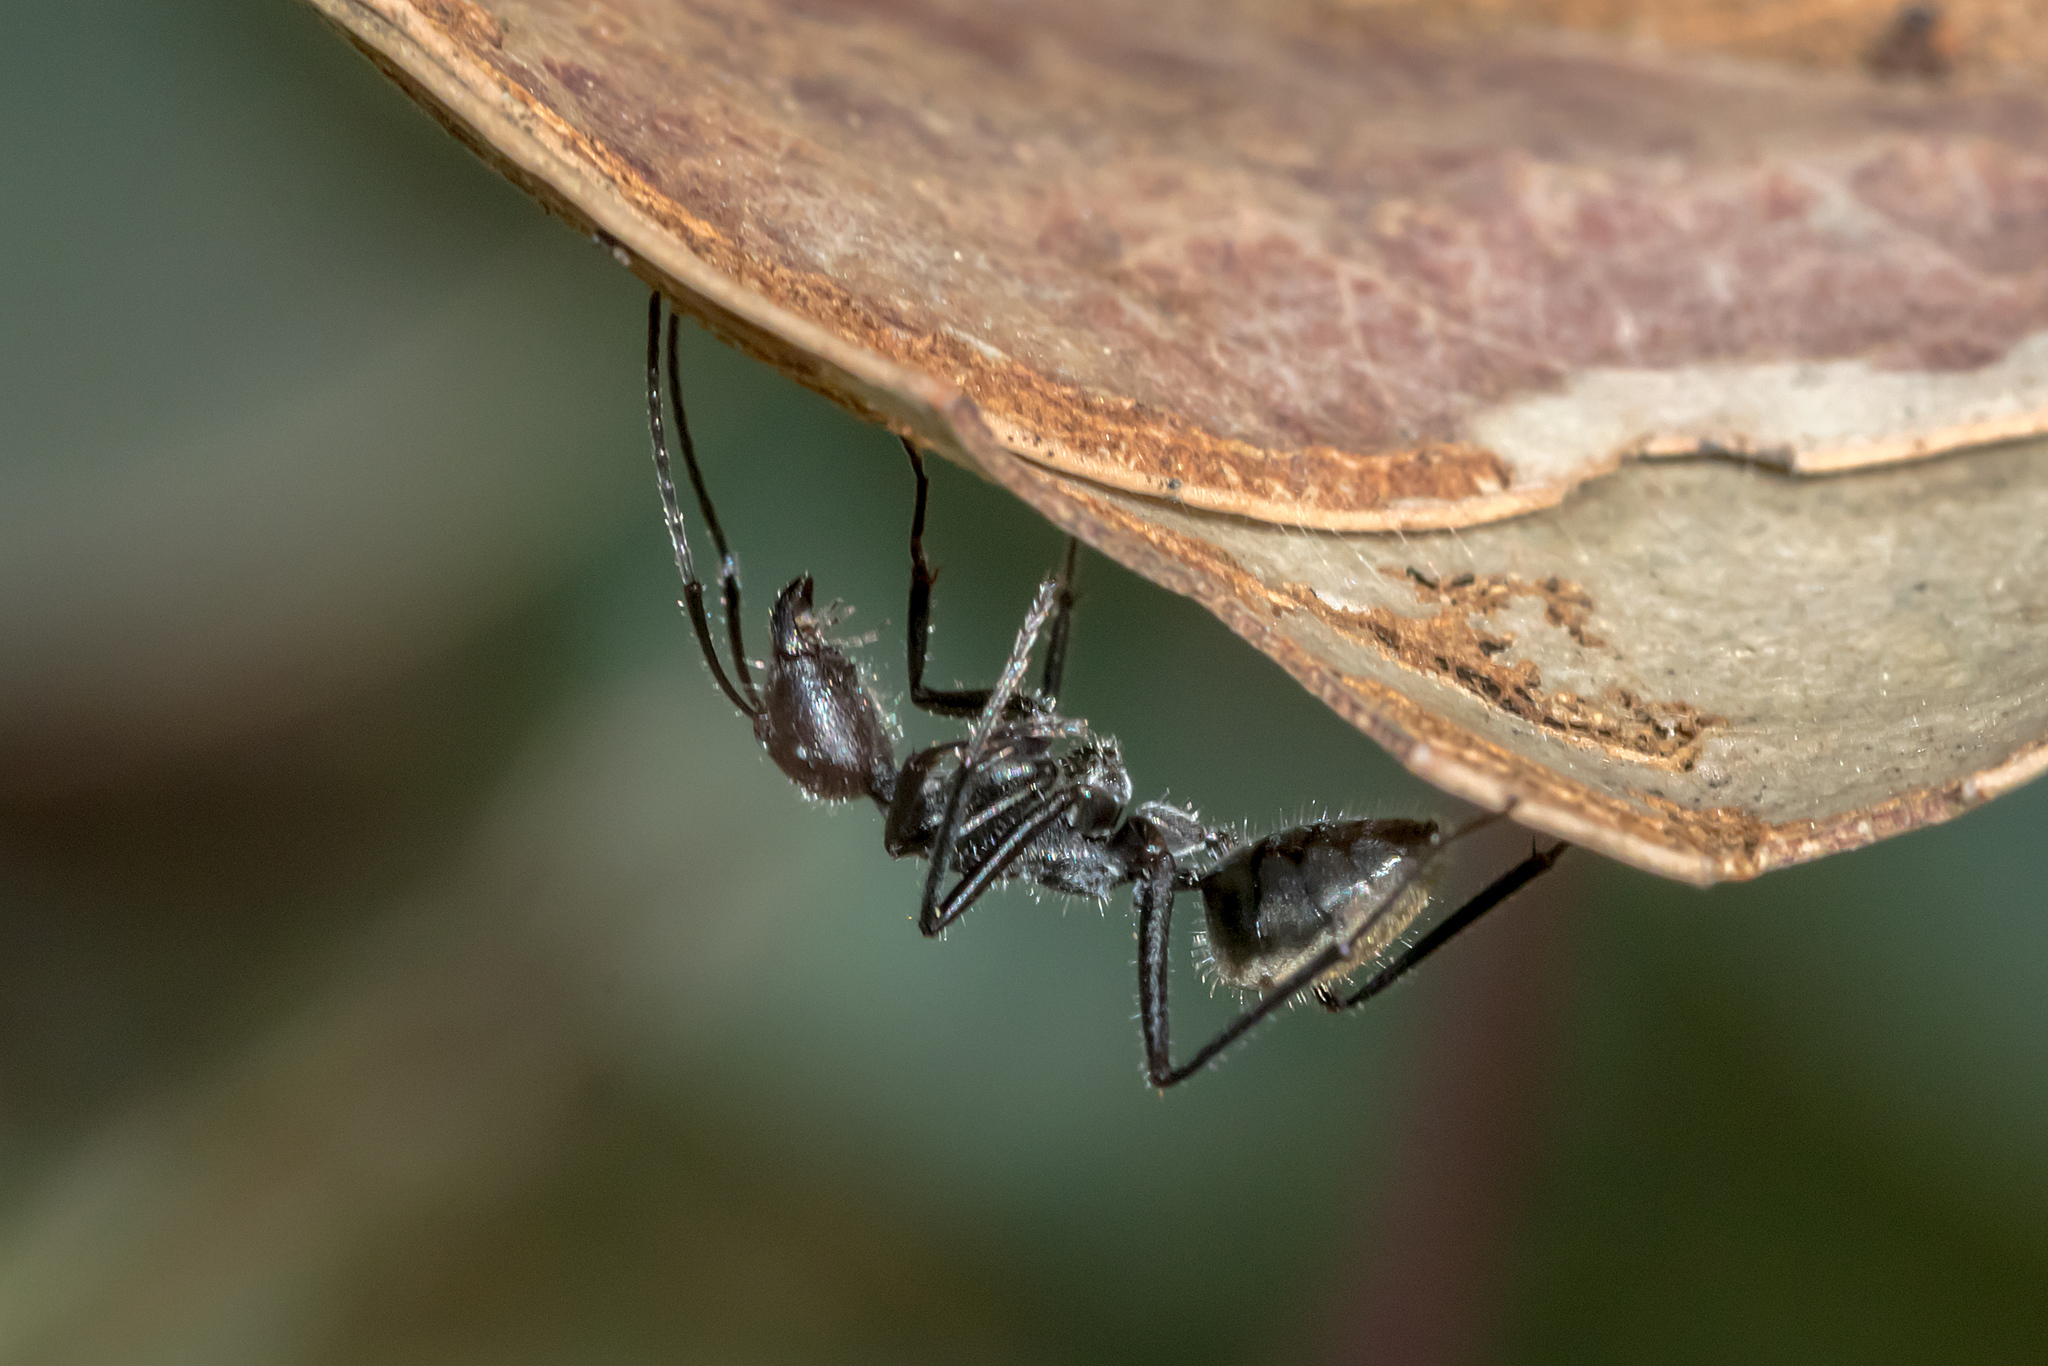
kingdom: Animalia
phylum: Arthropoda
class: Insecta
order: Hymenoptera
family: Formicidae
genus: Camponotus
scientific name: Camponotus suffusus
